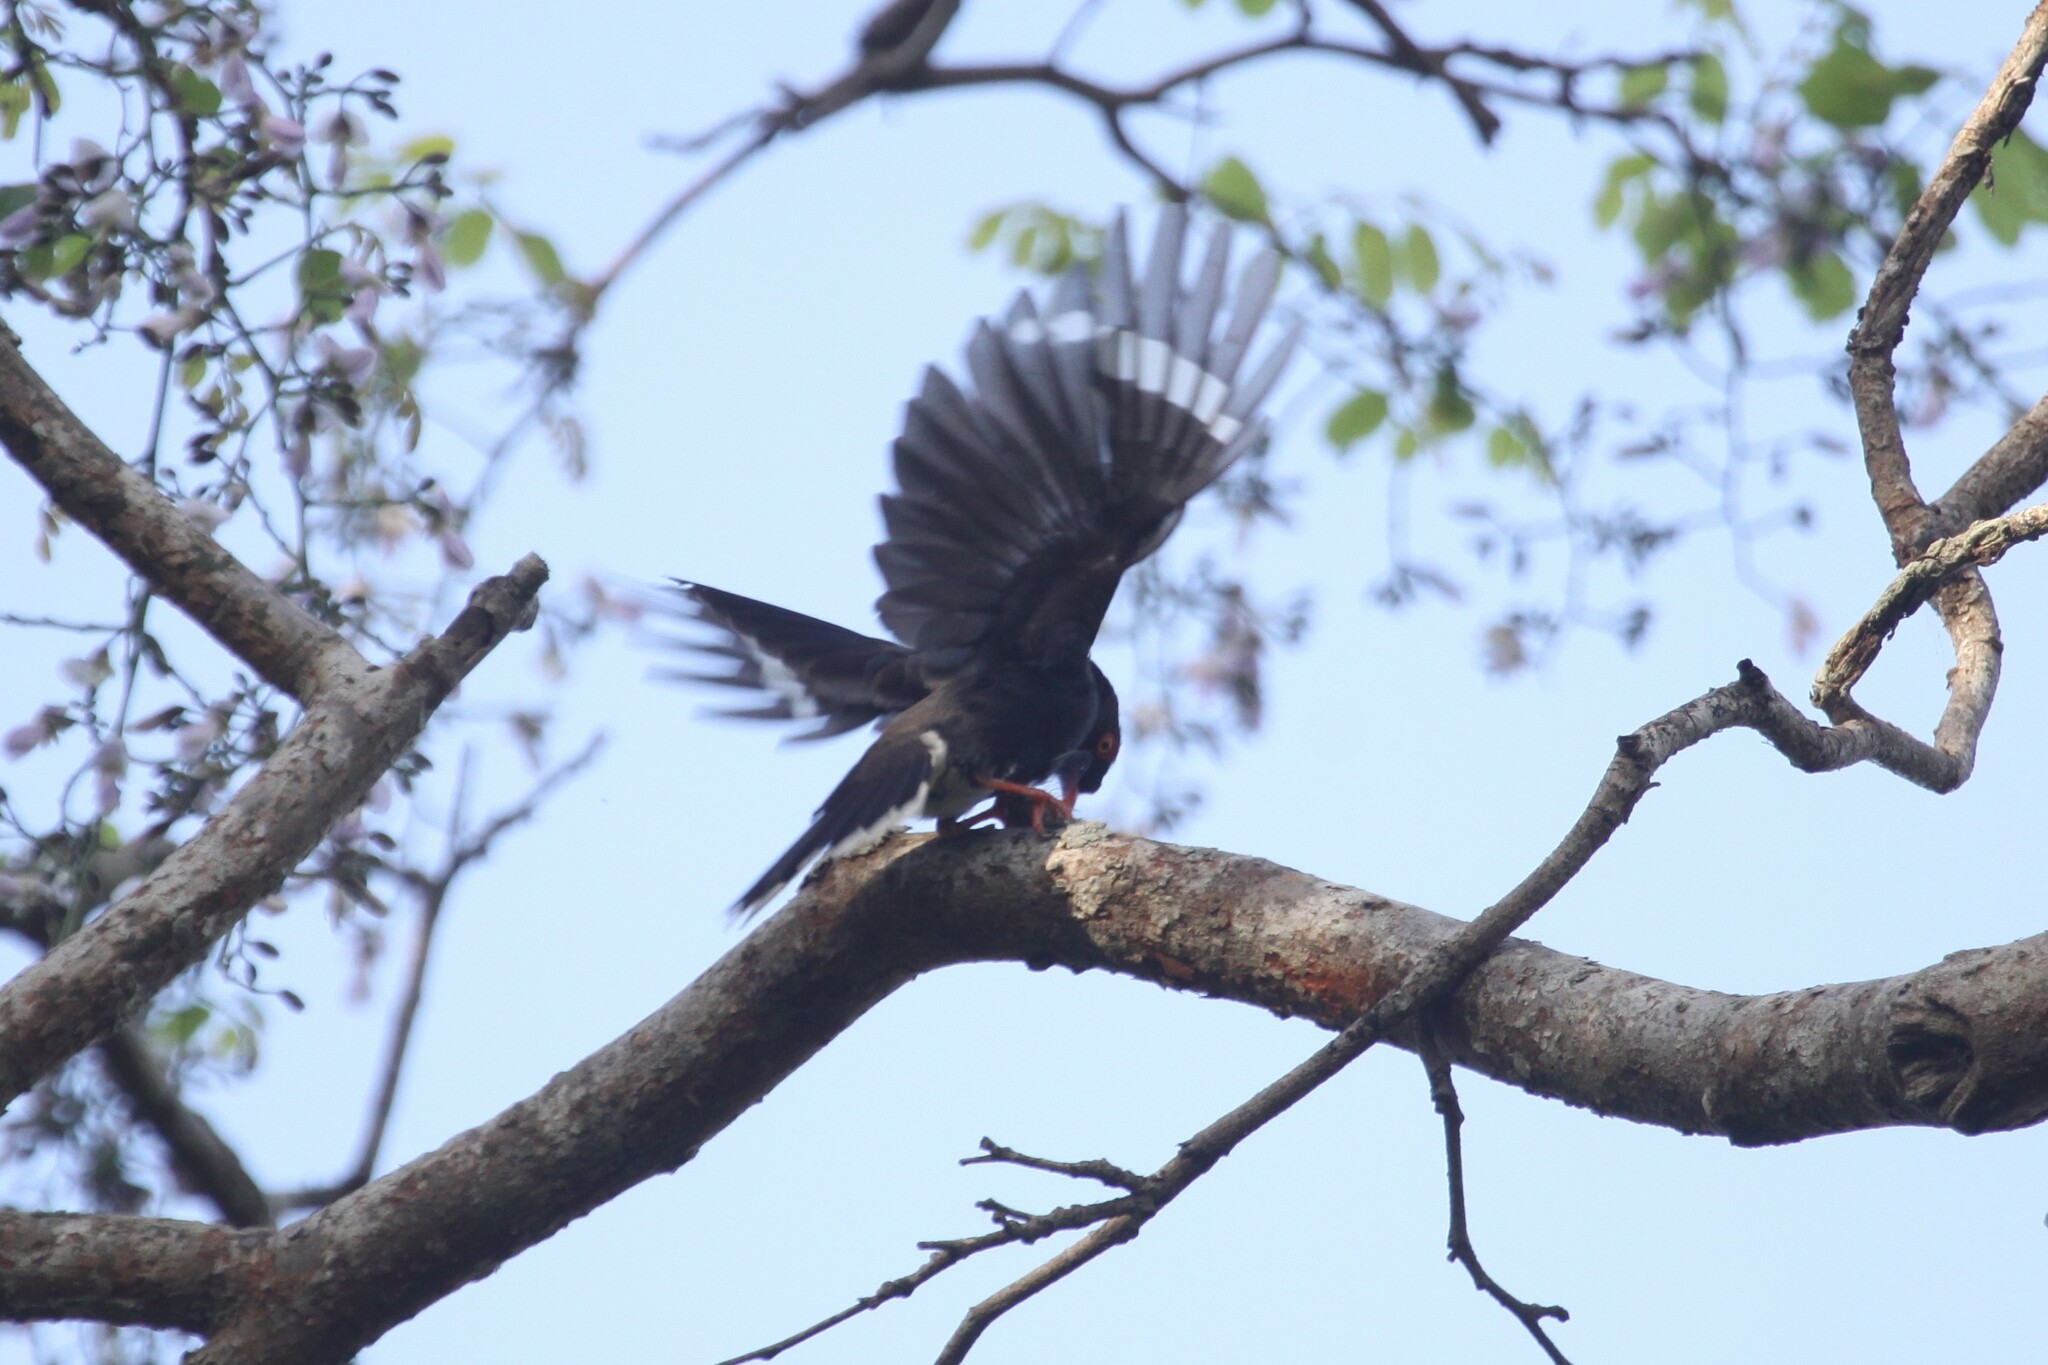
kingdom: Animalia
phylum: Chordata
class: Aves
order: Passeriformes
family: Prionopidae
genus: Prionops
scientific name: Prionops retzii
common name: Retz's helmetshrike
